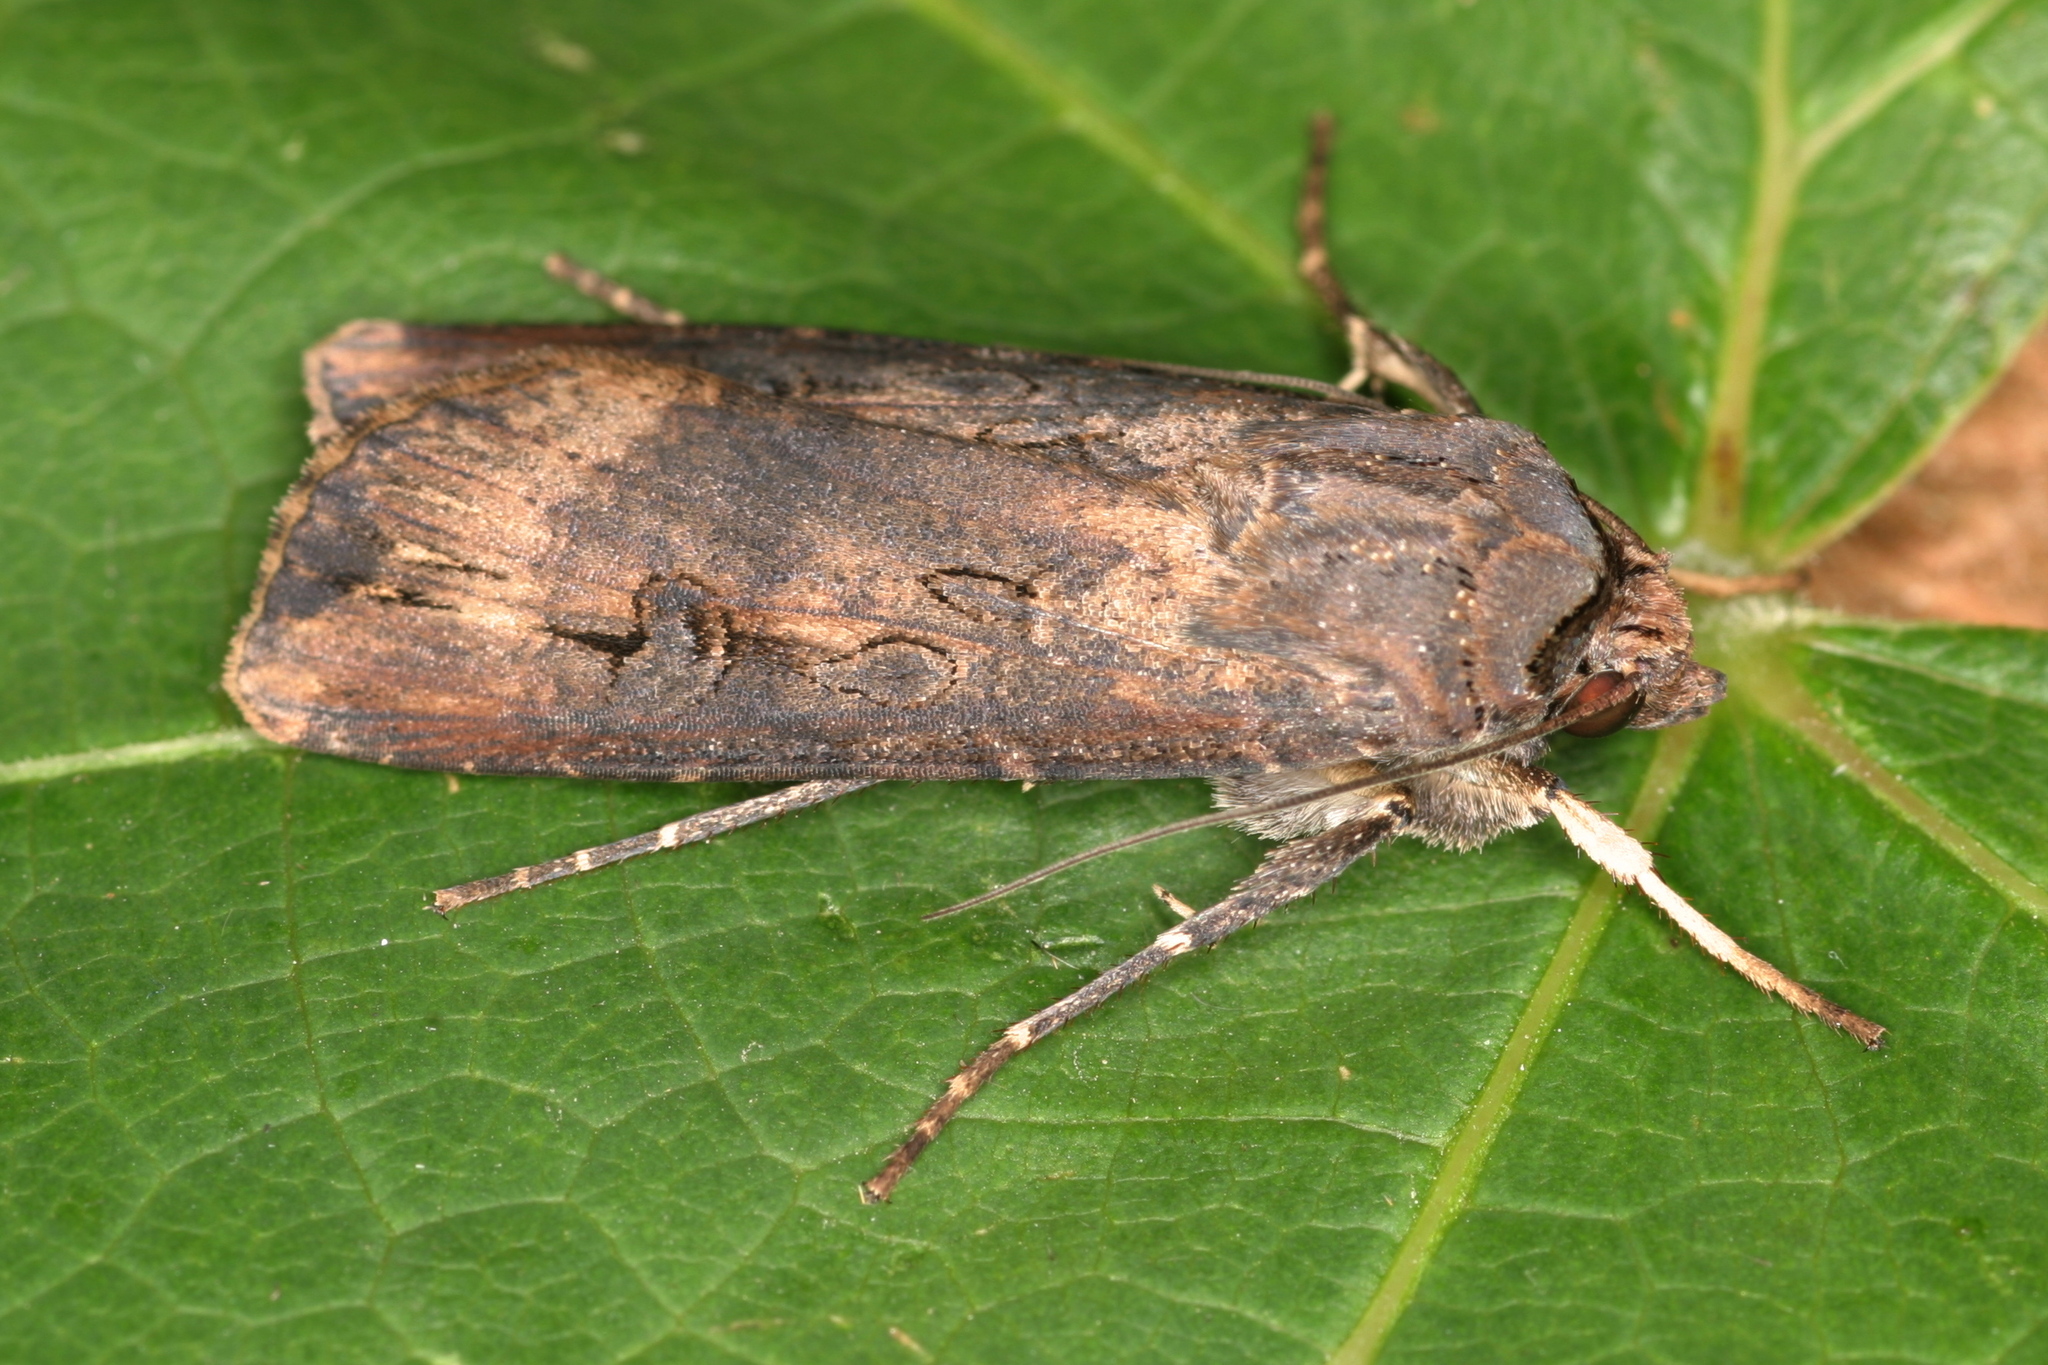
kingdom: Animalia
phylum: Arthropoda
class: Insecta
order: Lepidoptera
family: Noctuidae
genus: Agrotis
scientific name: Agrotis ipsilon
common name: Dark sword-grass
